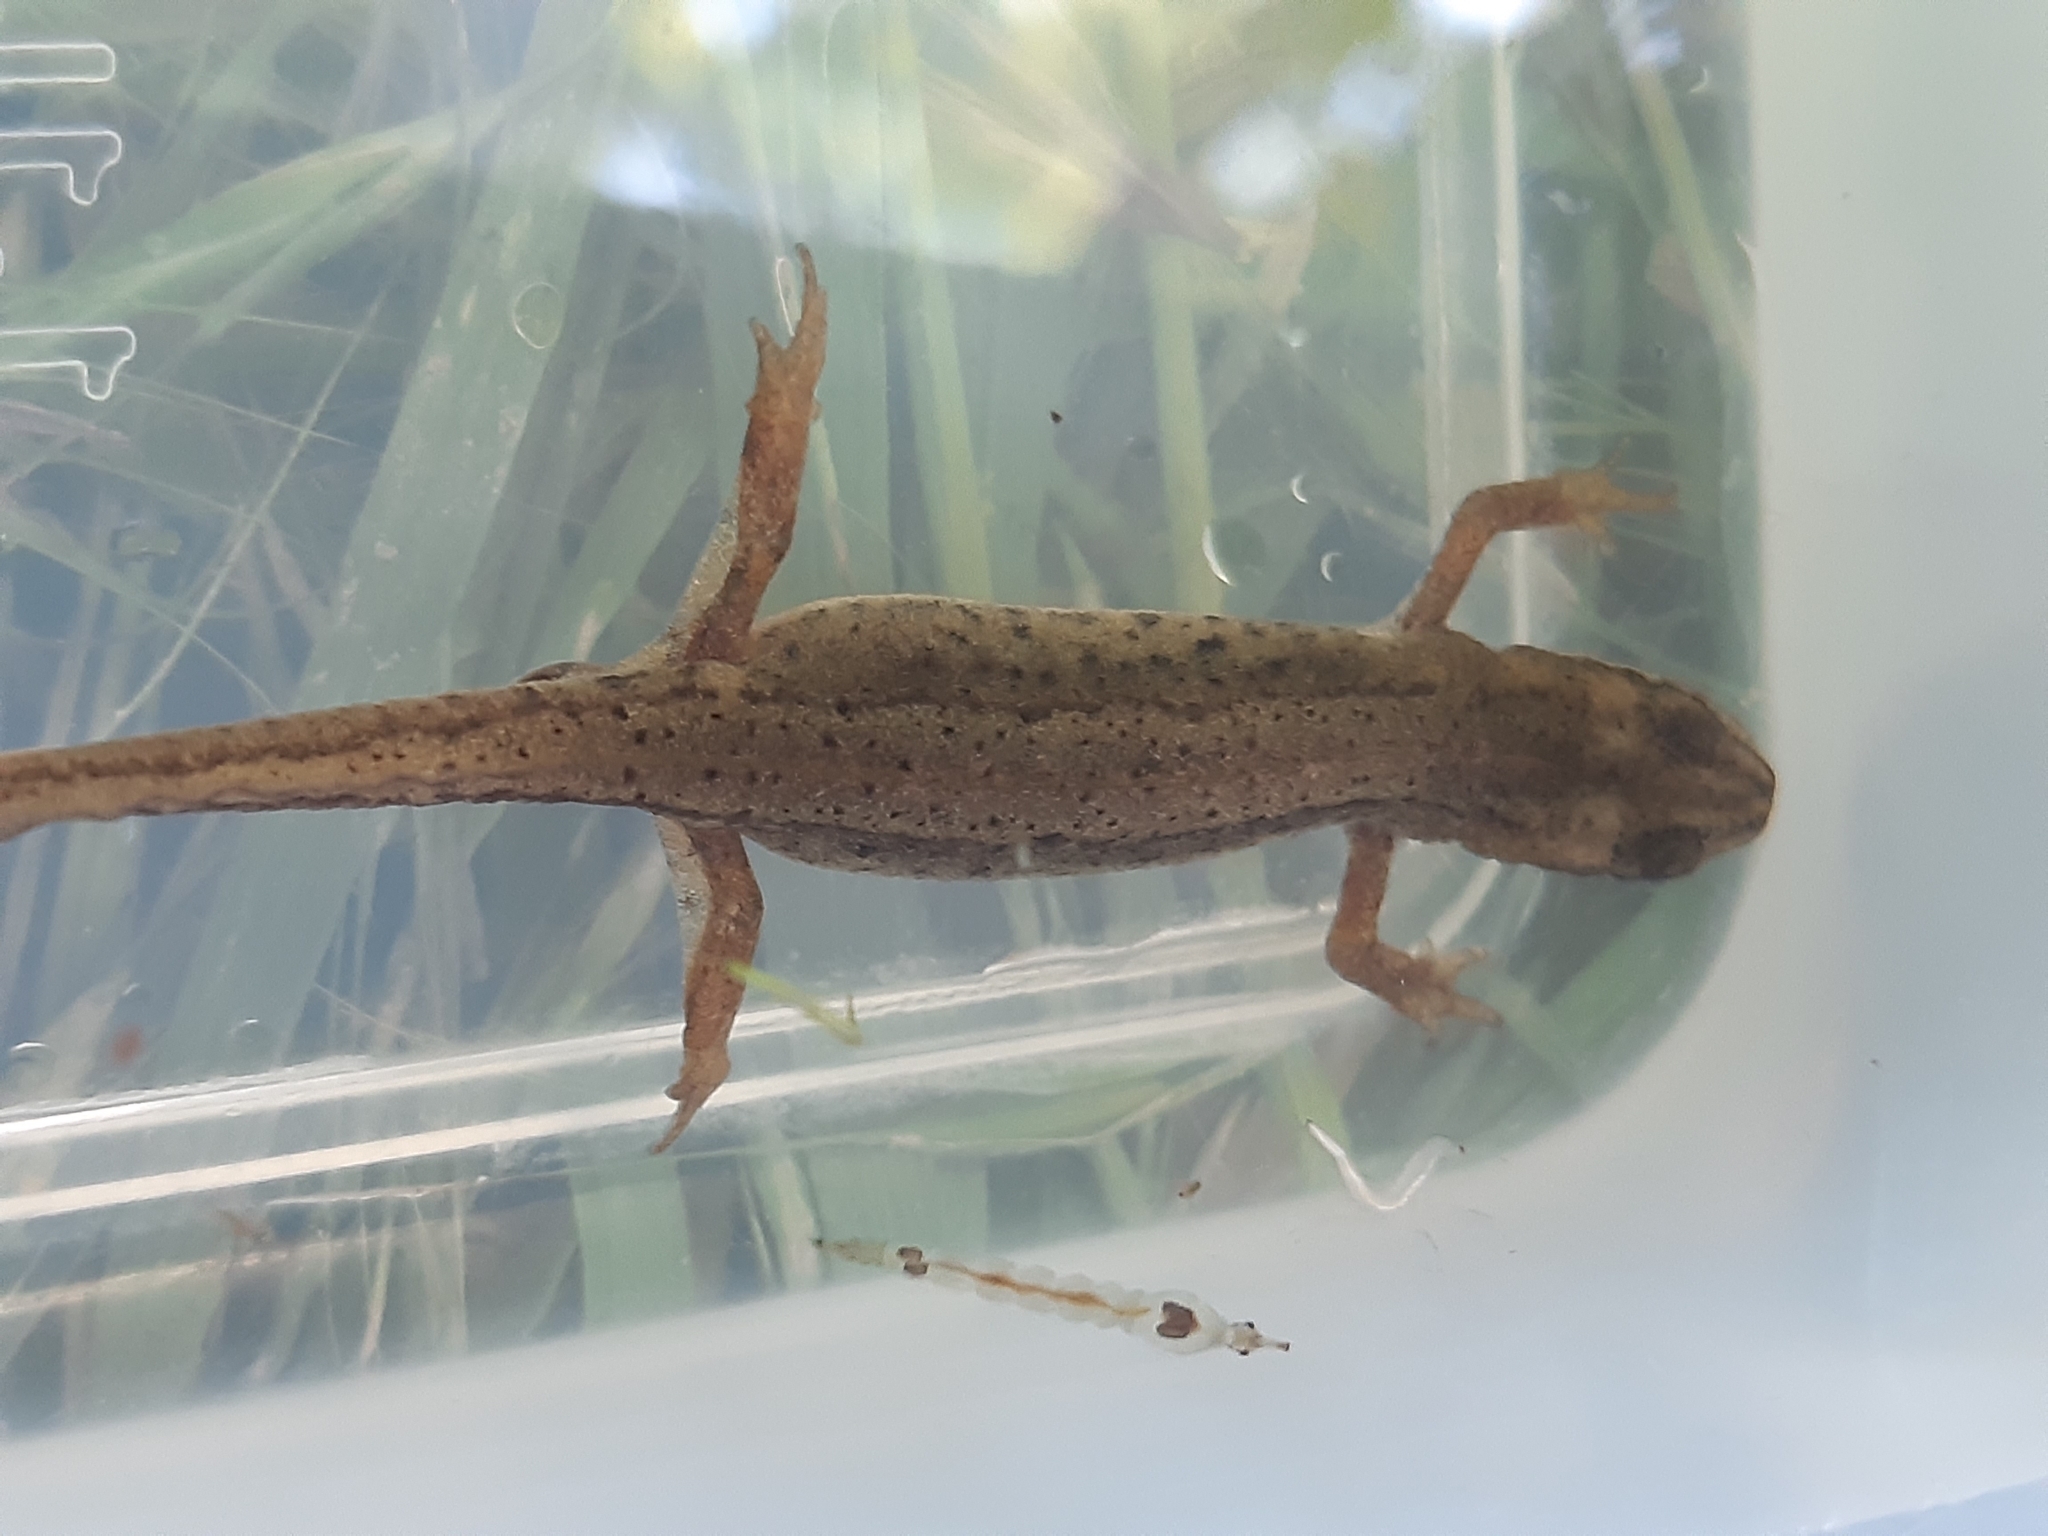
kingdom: Animalia
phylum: Chordata
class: Amphibia
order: Caudata
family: Salamandridae
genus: Lissotriton
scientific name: Lissotriton vulgaris
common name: Smooth newt
